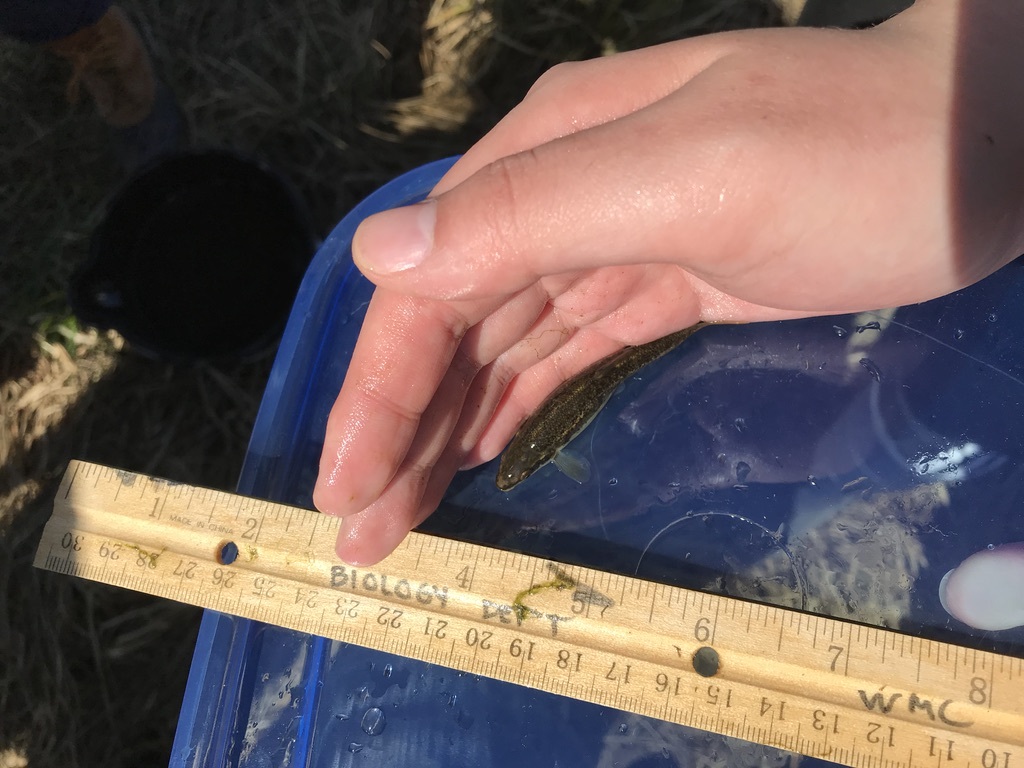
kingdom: Animalia
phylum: Chordata
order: Cypriniformes
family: Cyprinidae
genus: Rhinichthys
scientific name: Rhinichthys atratulus
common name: Eastern blacknose dace
